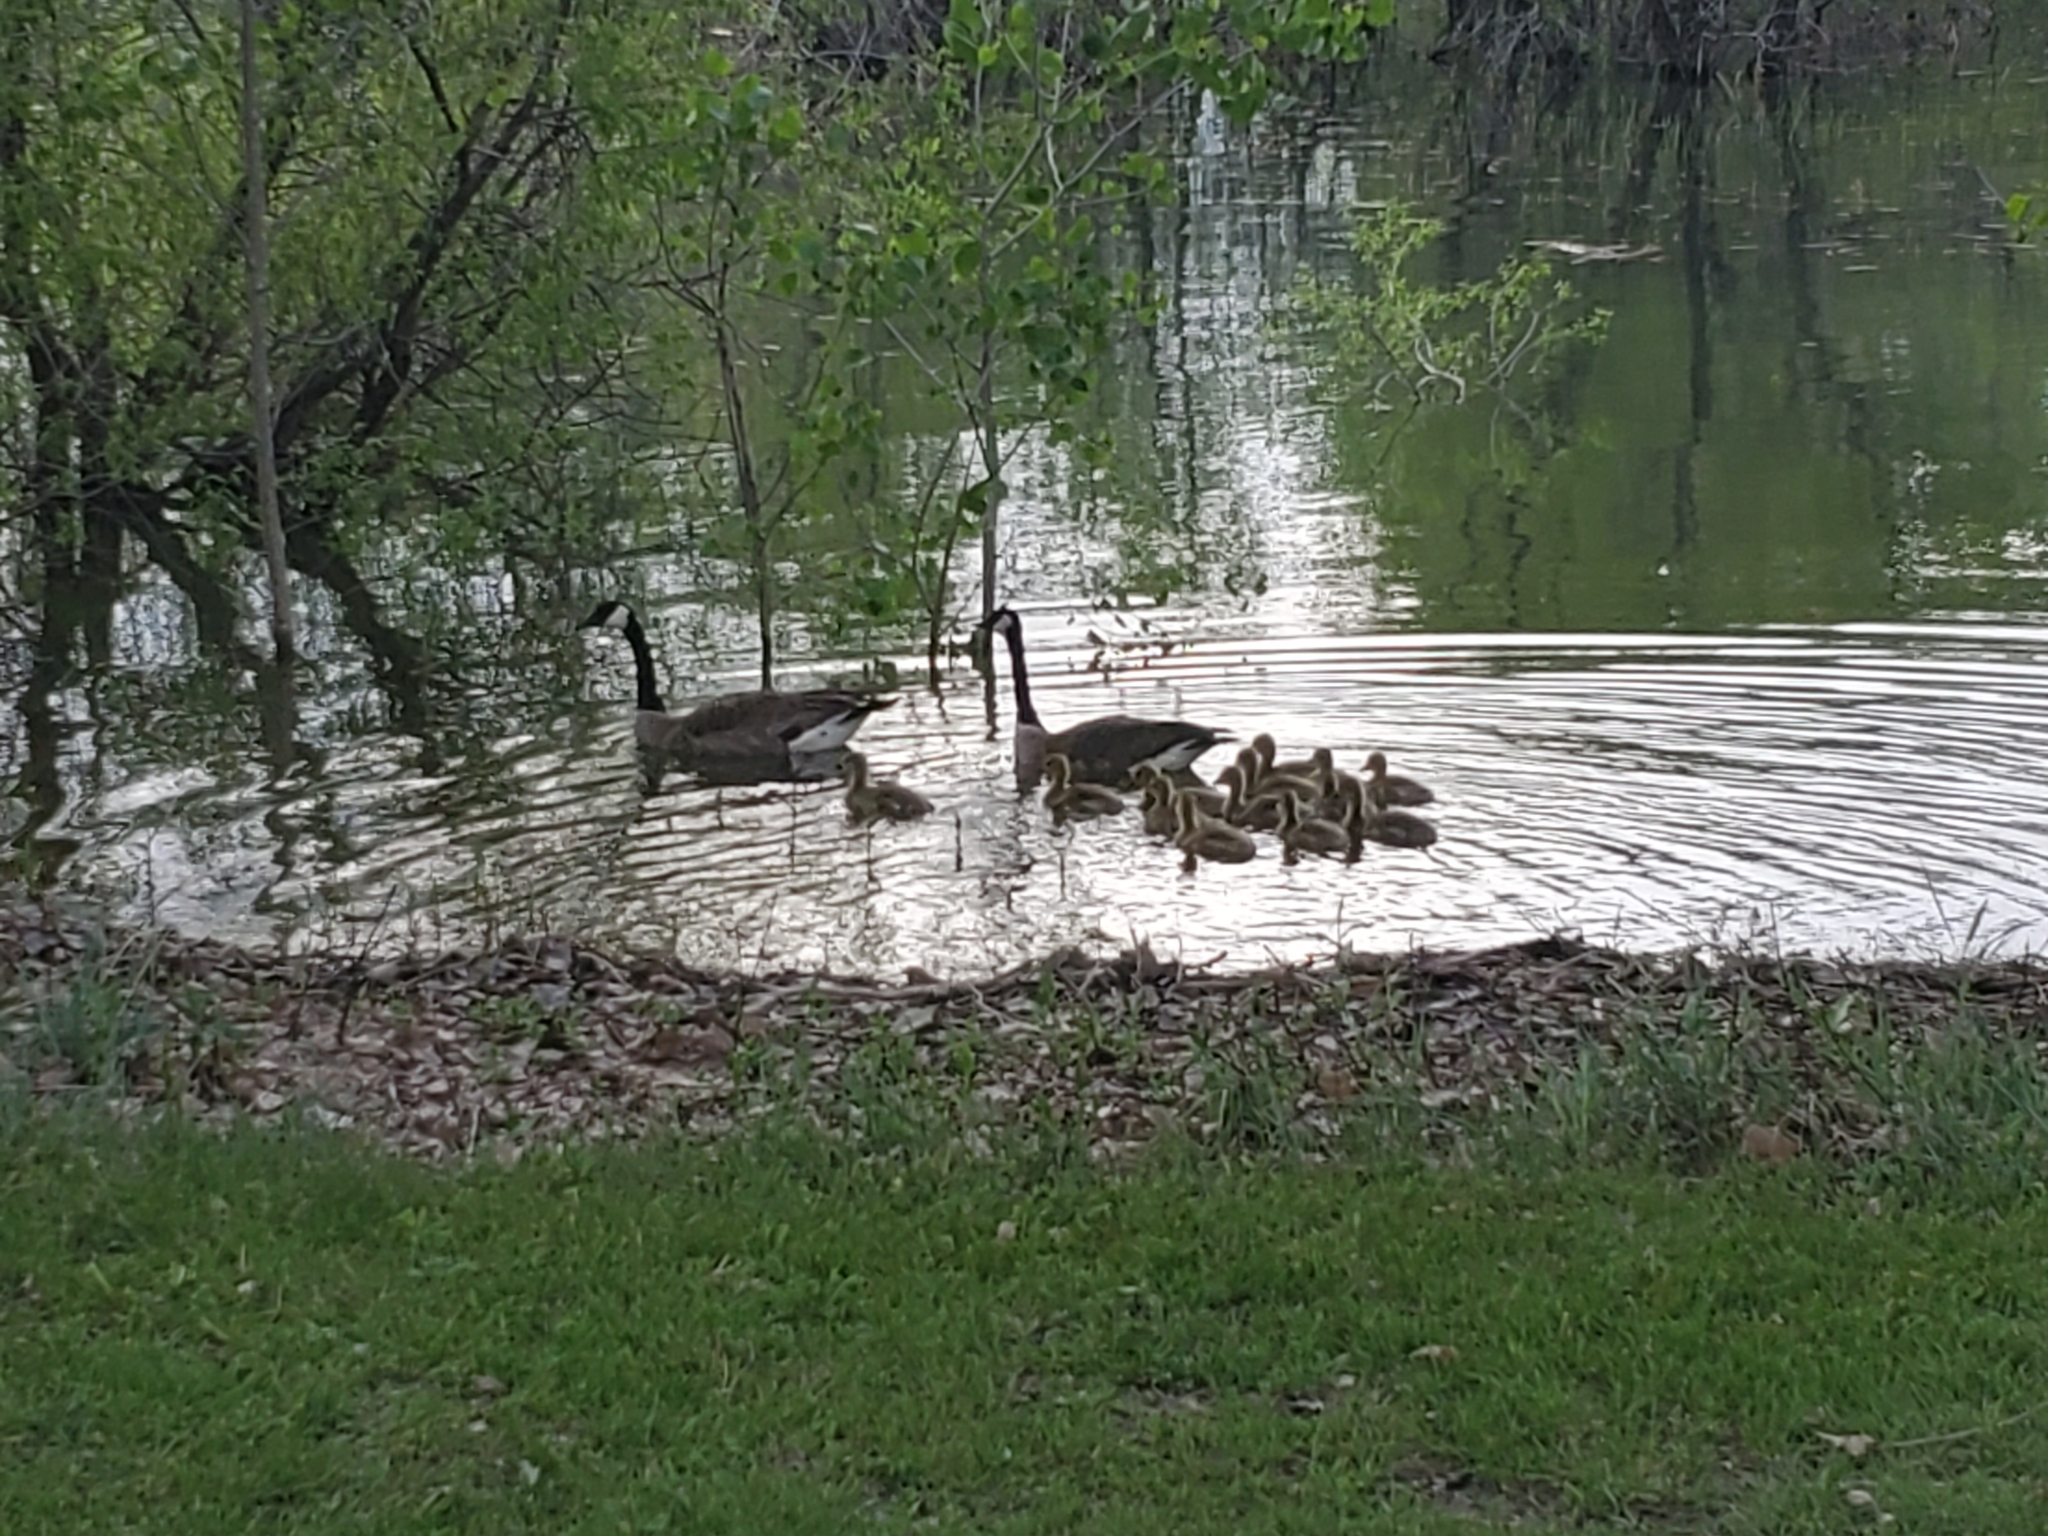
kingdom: Animalia
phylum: Chordata
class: Aves
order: Anseriformes
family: Anatidae
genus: Branta
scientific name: Branta canadensis
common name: Canada goose
